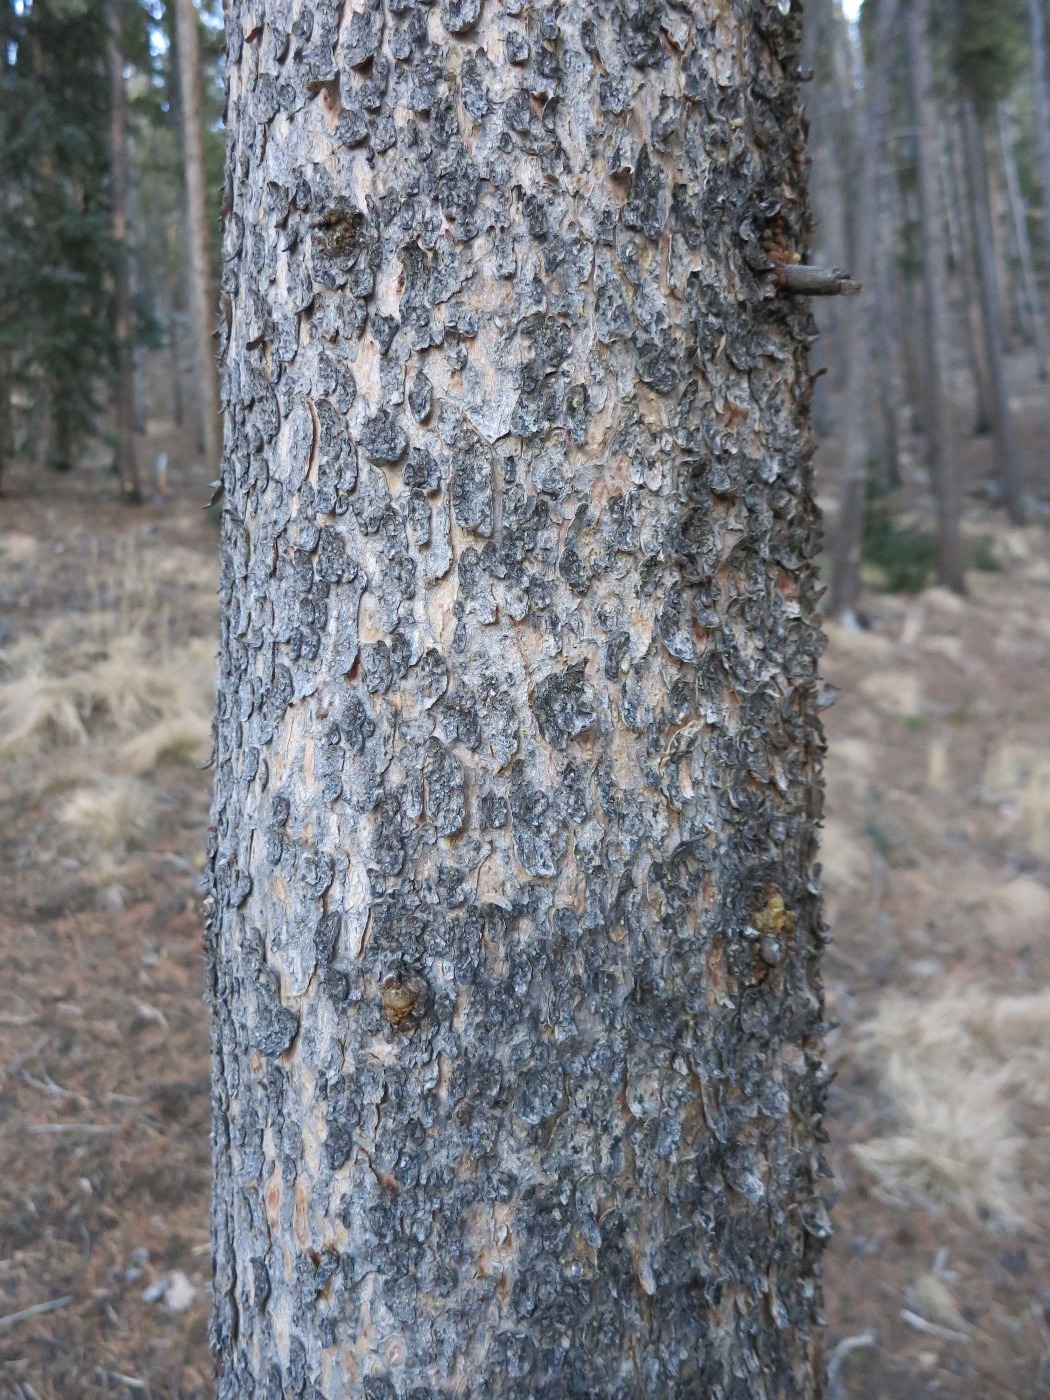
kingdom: Plantae
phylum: Tracheophyta
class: Pinopsida
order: Pinales
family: Pinaceae
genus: Pinus
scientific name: Pinus contorta
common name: Lodgepole pine
